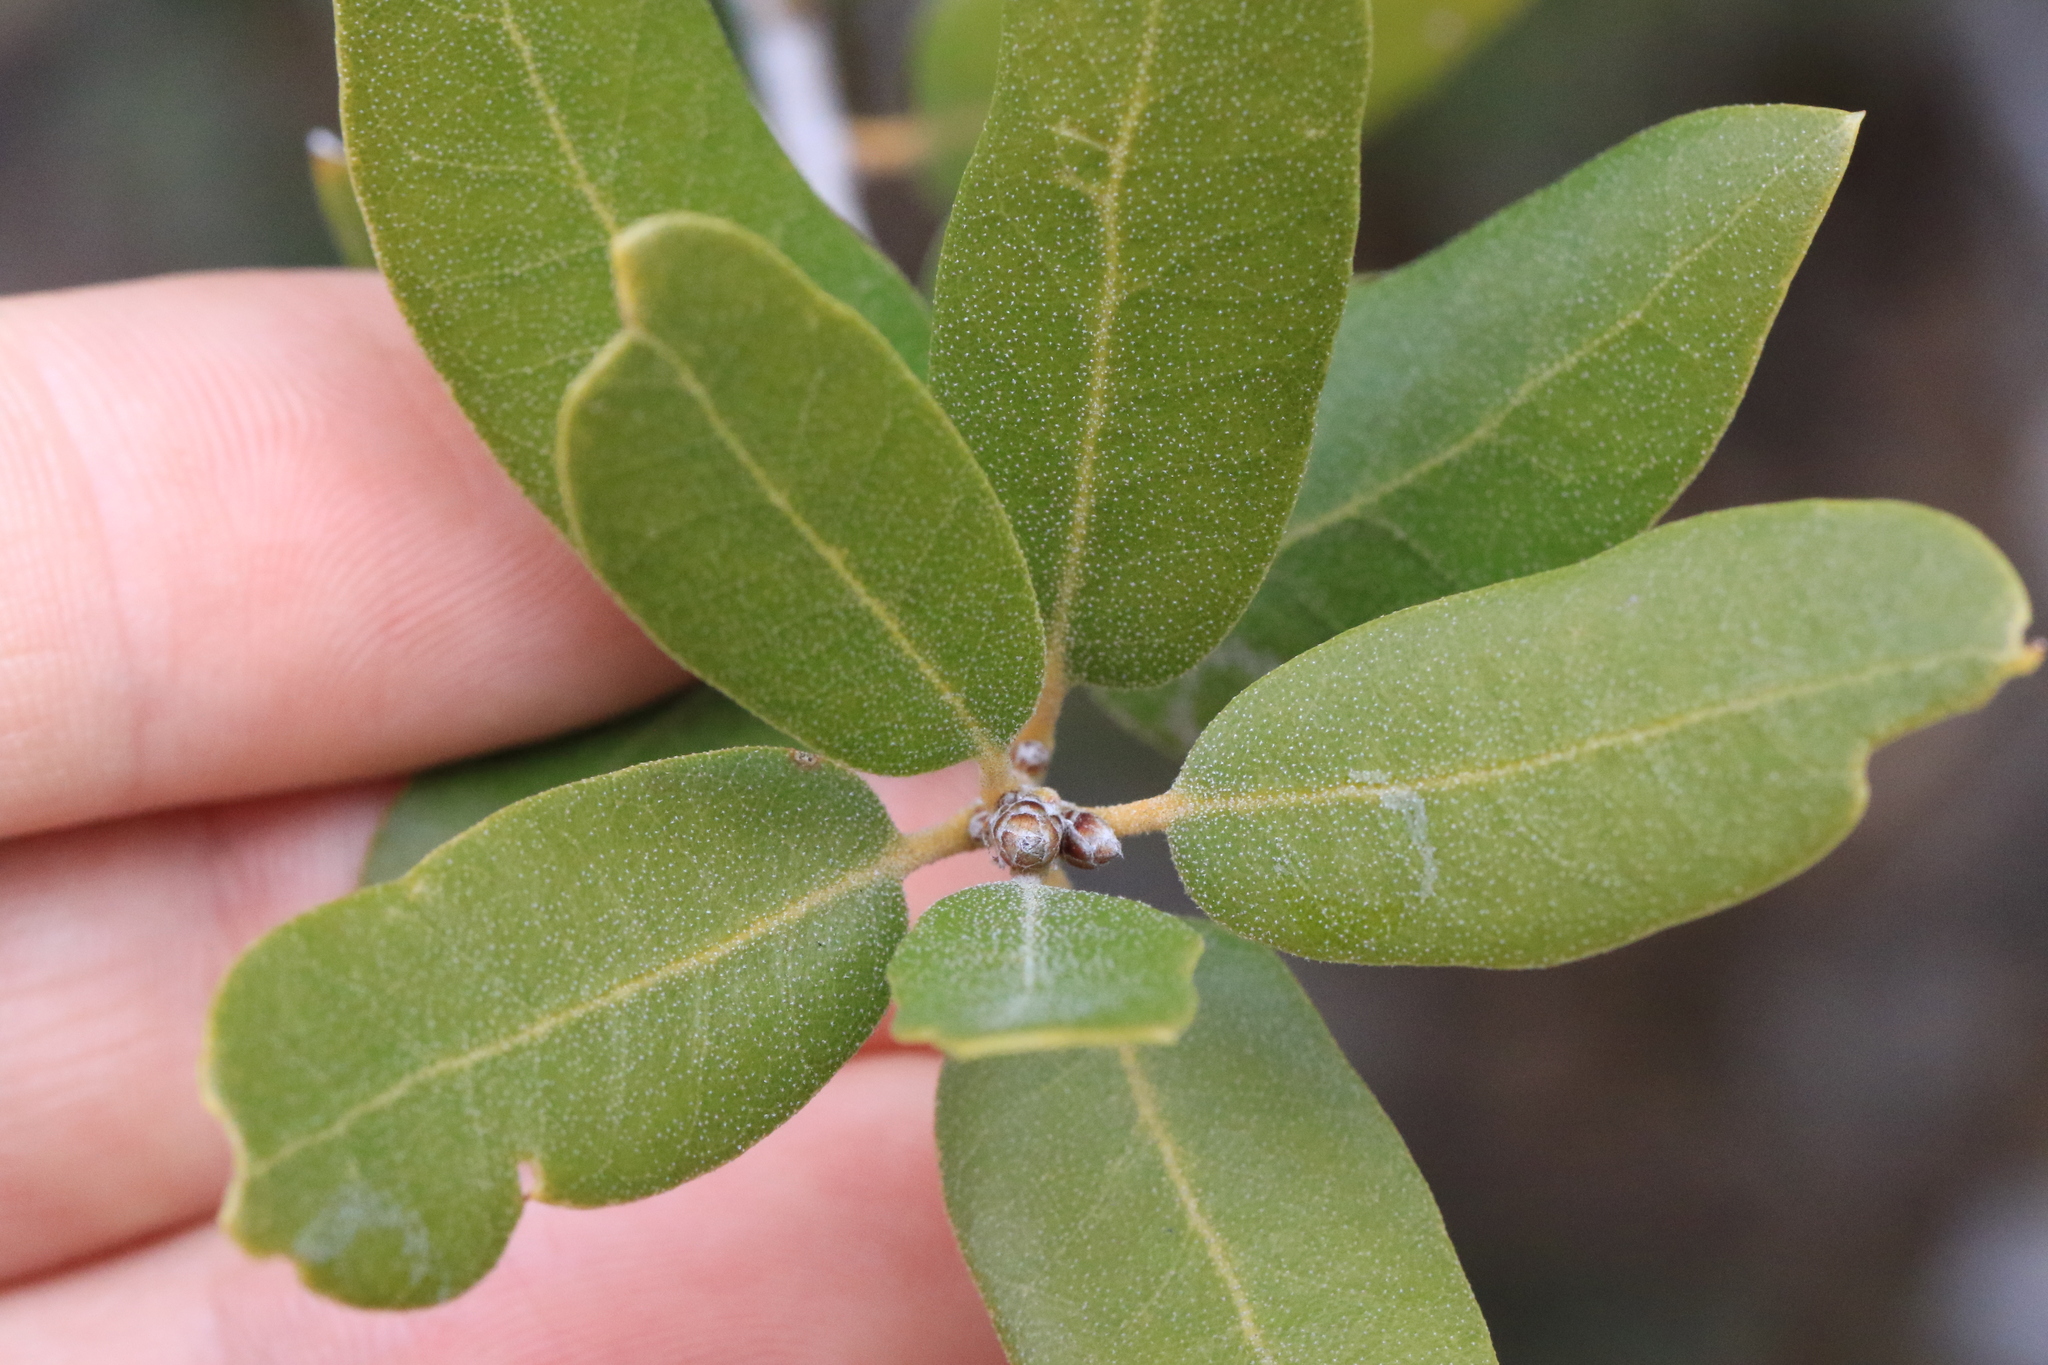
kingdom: Plantae
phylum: Tracheophyta
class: Magnoliopsida
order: Fagales
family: Fagaceae
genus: Quercus
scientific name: Quercus chrysolepis
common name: Canyon live oak
